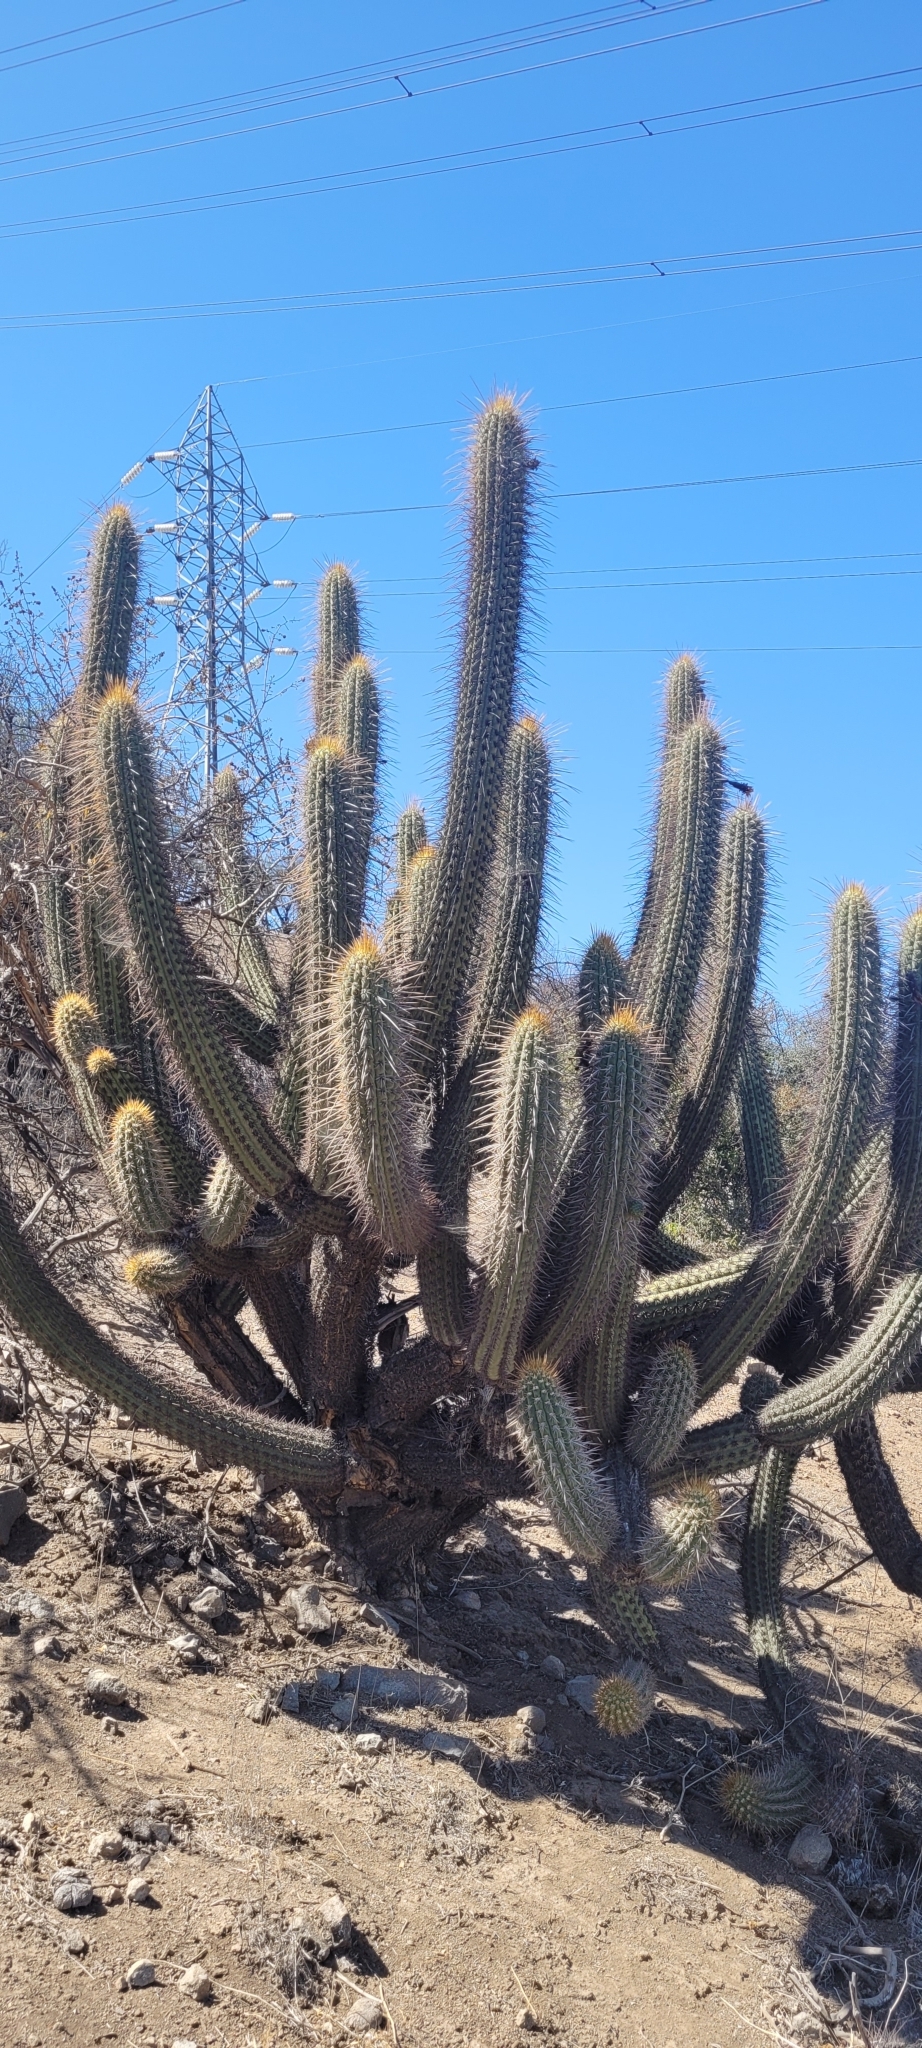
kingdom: Plantae
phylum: Tracheophyta
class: Magnoliopsida
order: Caryophyllales
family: Cactaceae
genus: Leucostele
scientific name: Leucostele chiloensis
